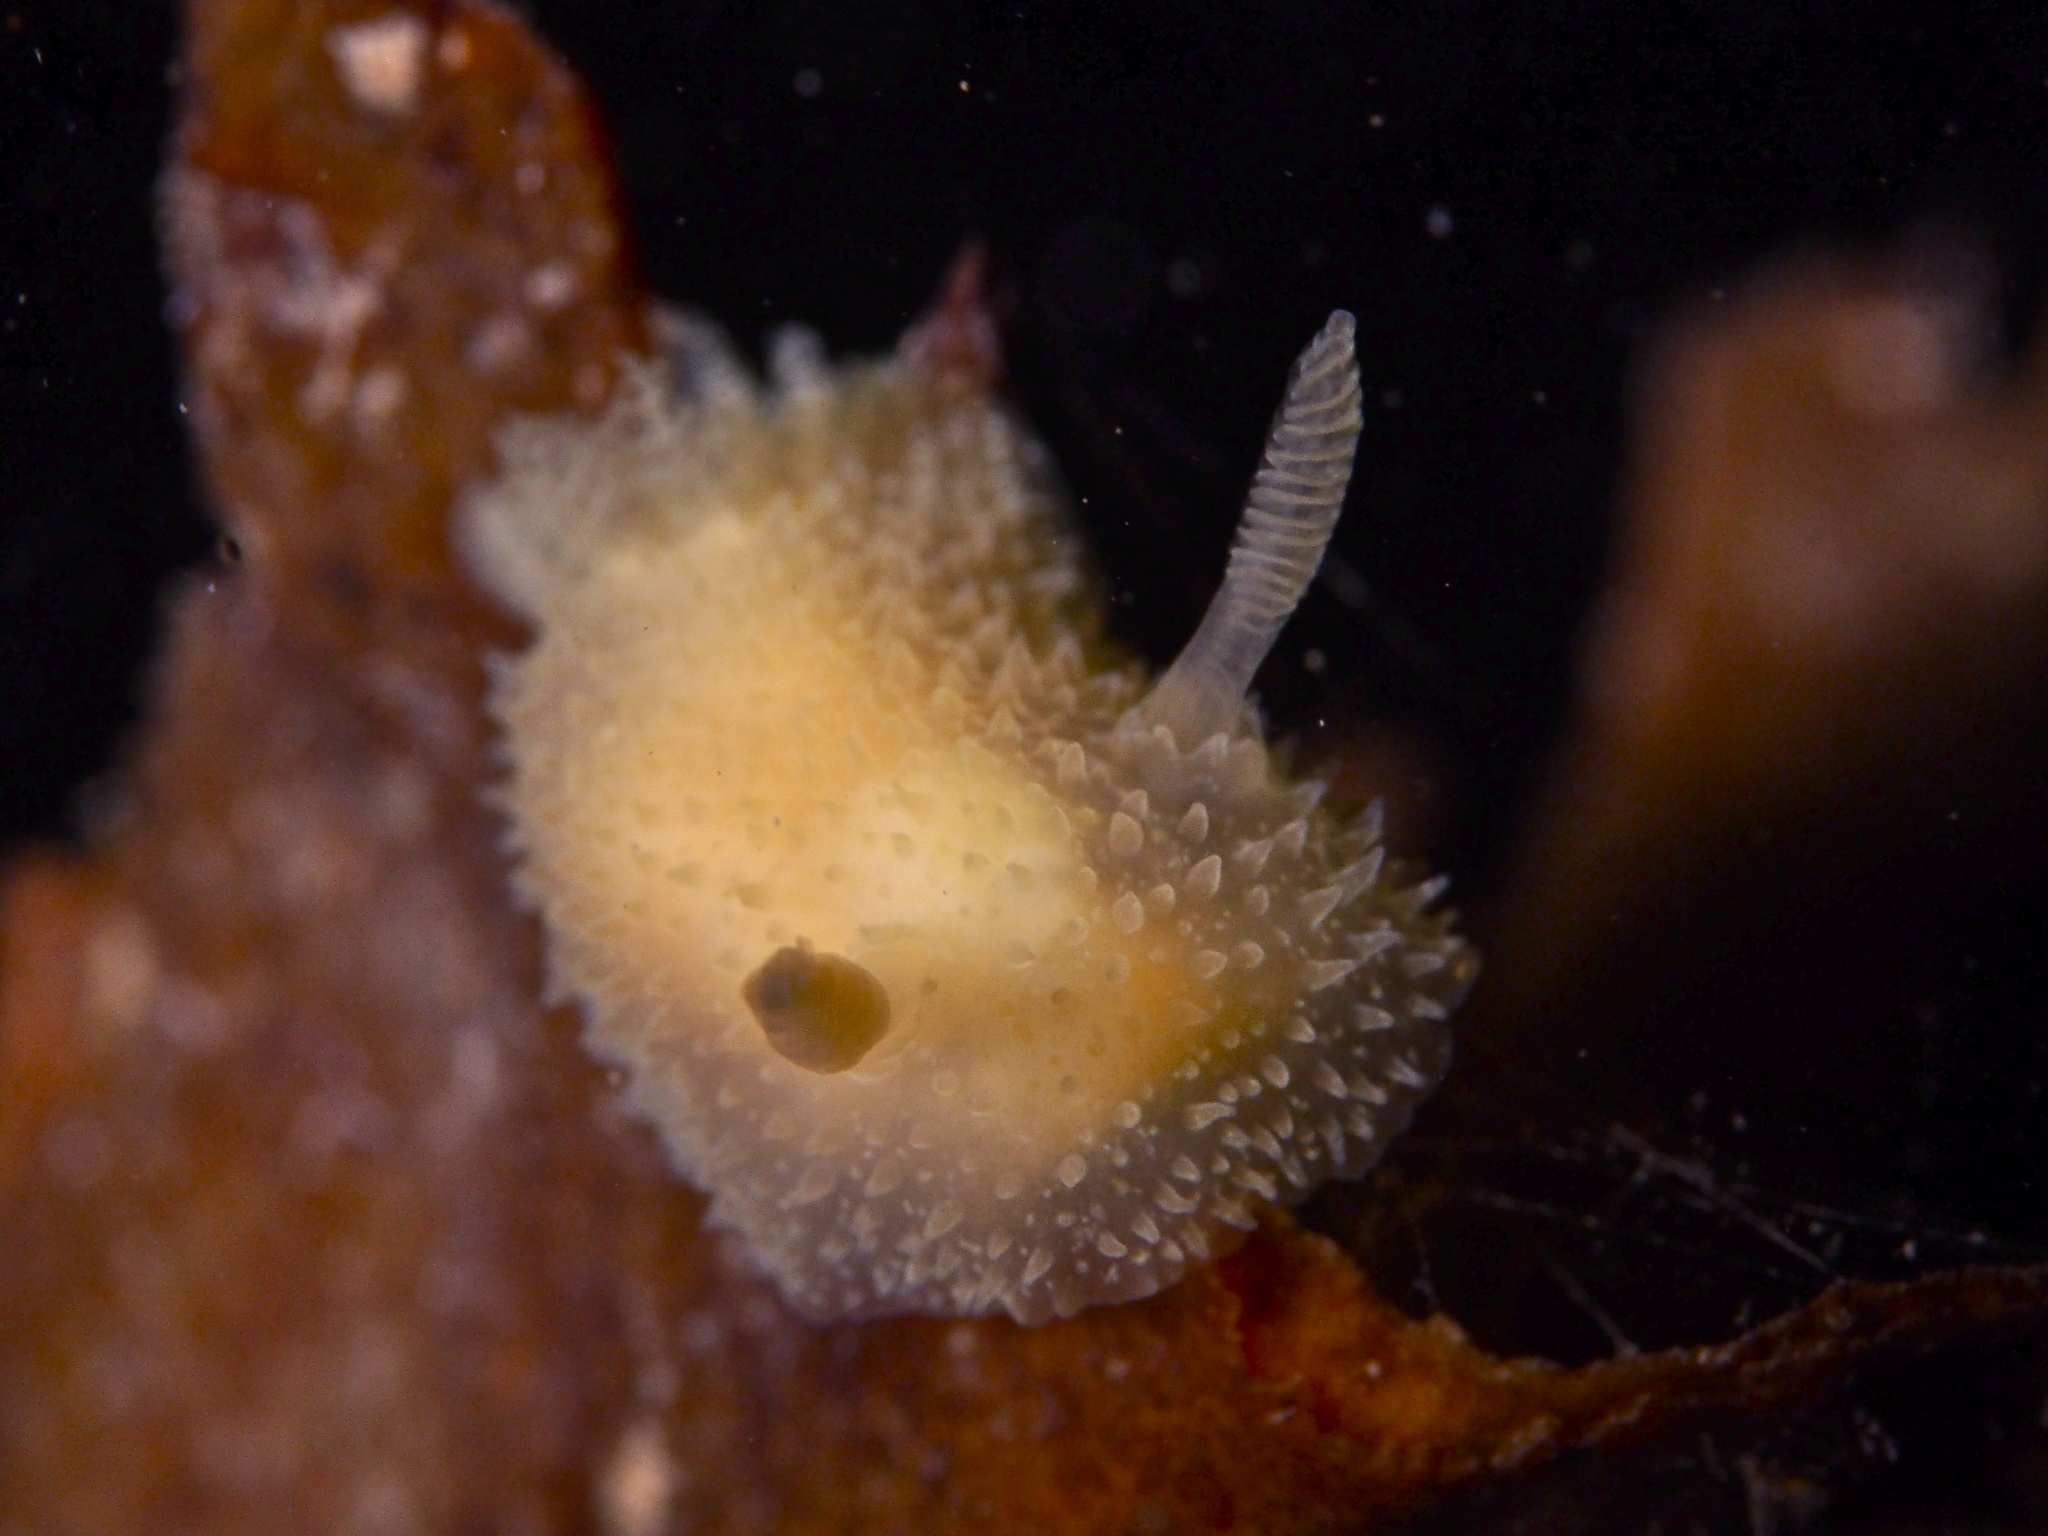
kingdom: Animalia
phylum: Mollusca
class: Gastropoda
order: Nudibranchia
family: Onchidorididae
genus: Acanthodoris
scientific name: Acanthodoris pilosa
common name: Hairy spiny doris
